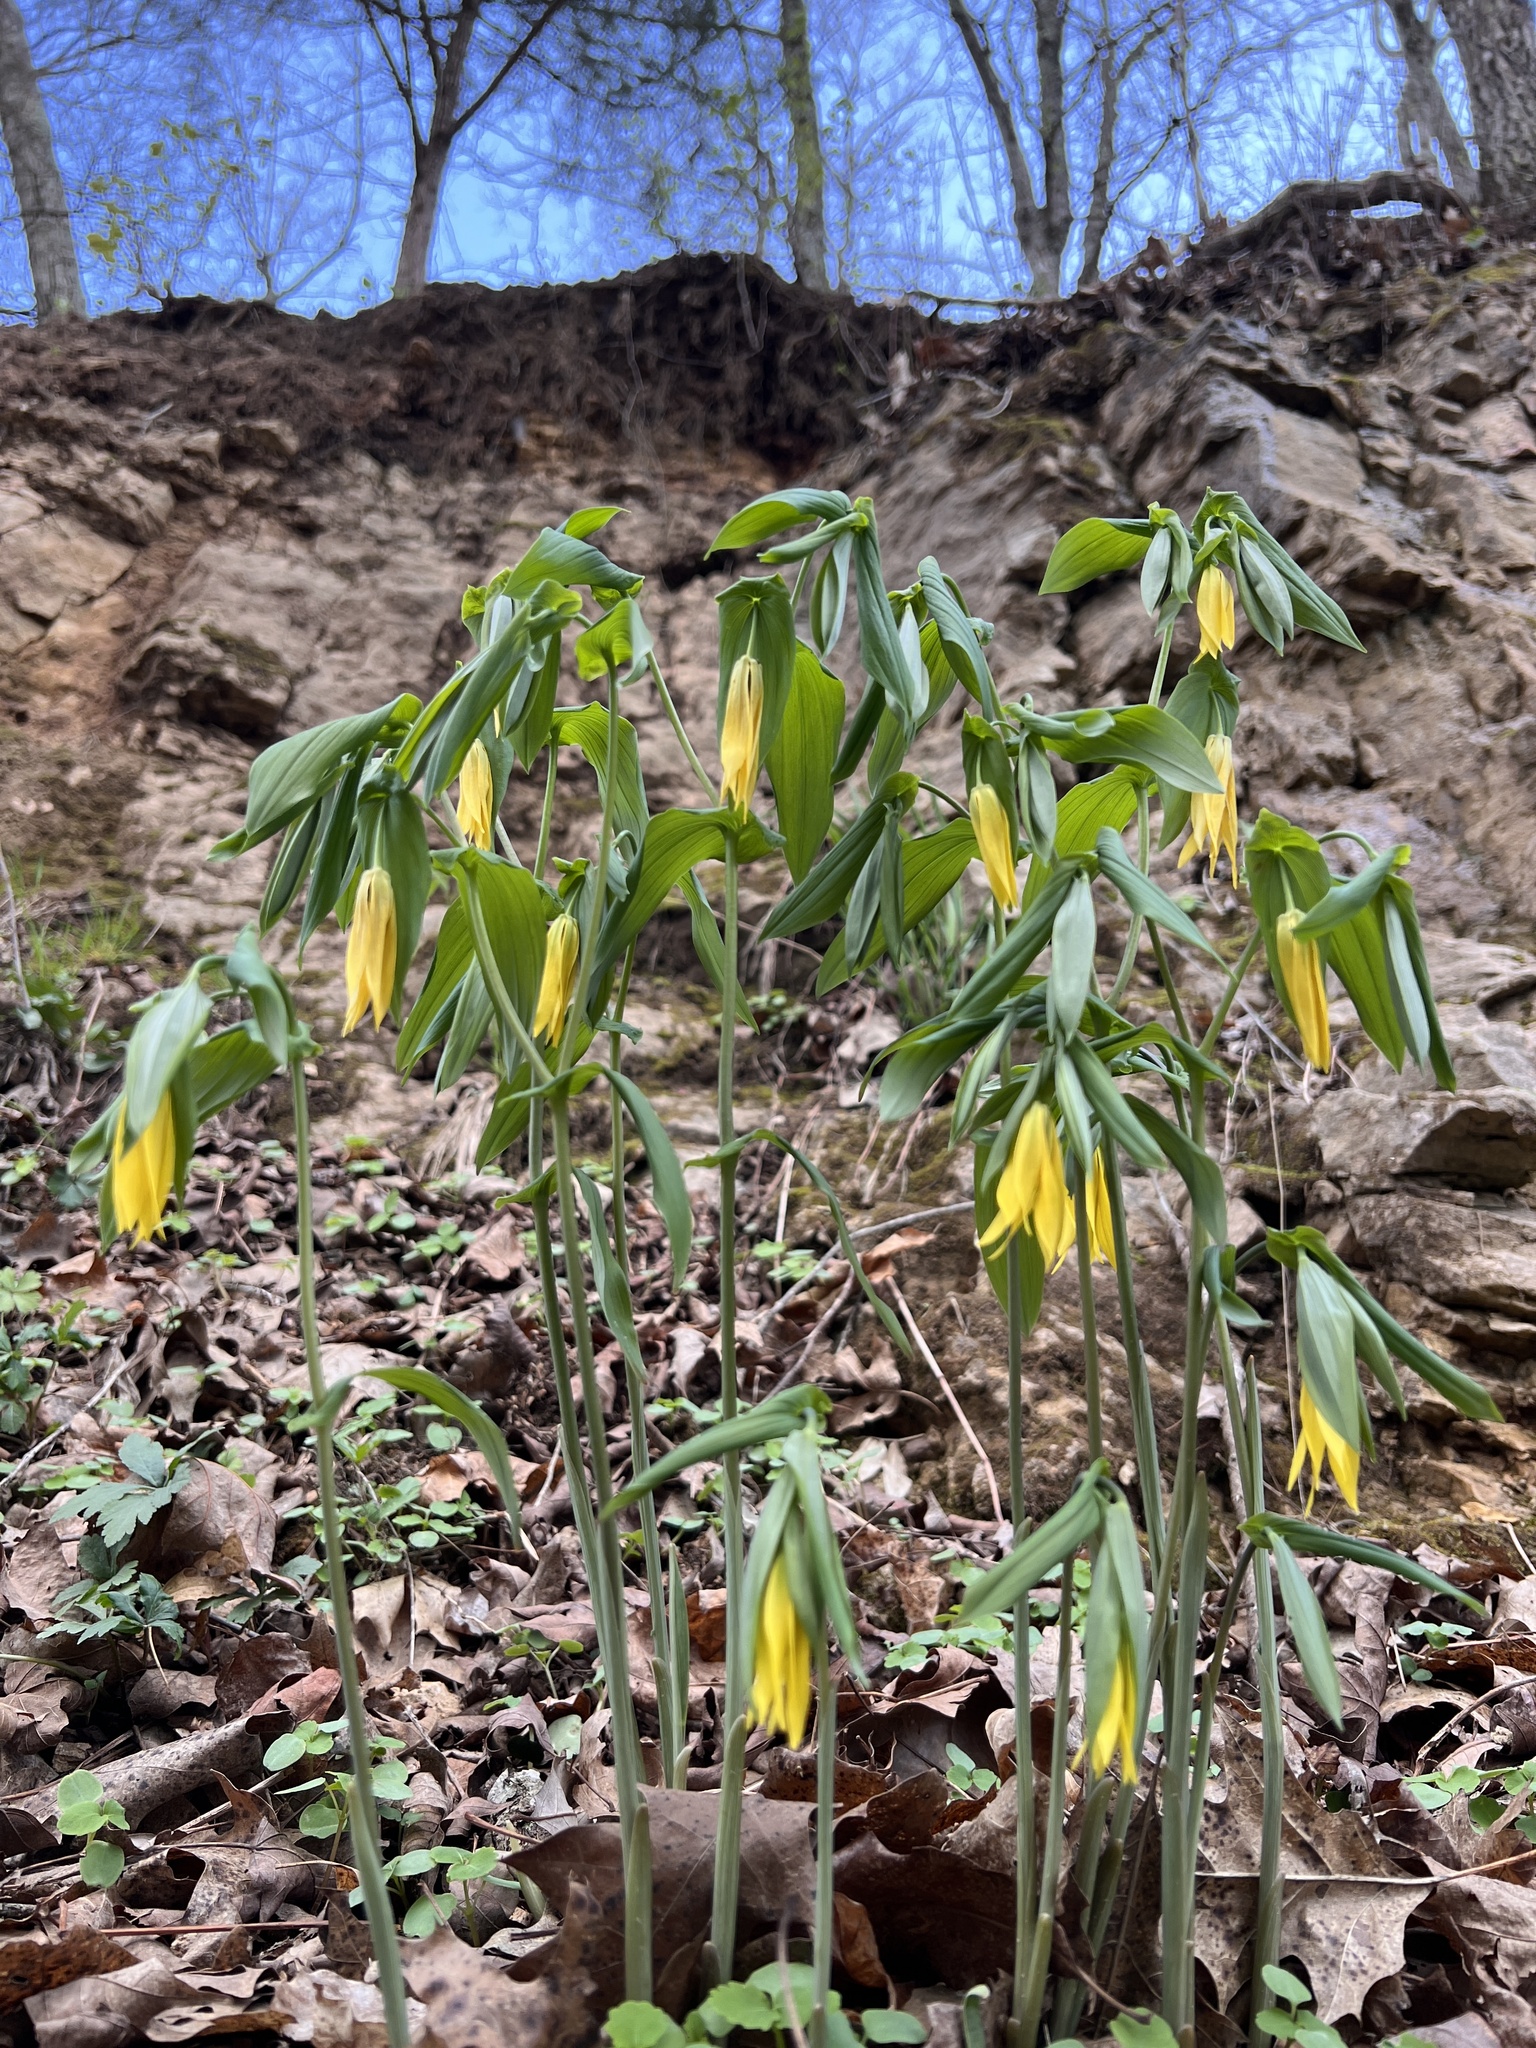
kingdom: Plantae
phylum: Tracheophyta
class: Liliopsida
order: Liliales
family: Colchicaceae
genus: Uvularia
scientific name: Uvularia grandiflora
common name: Bellwort
